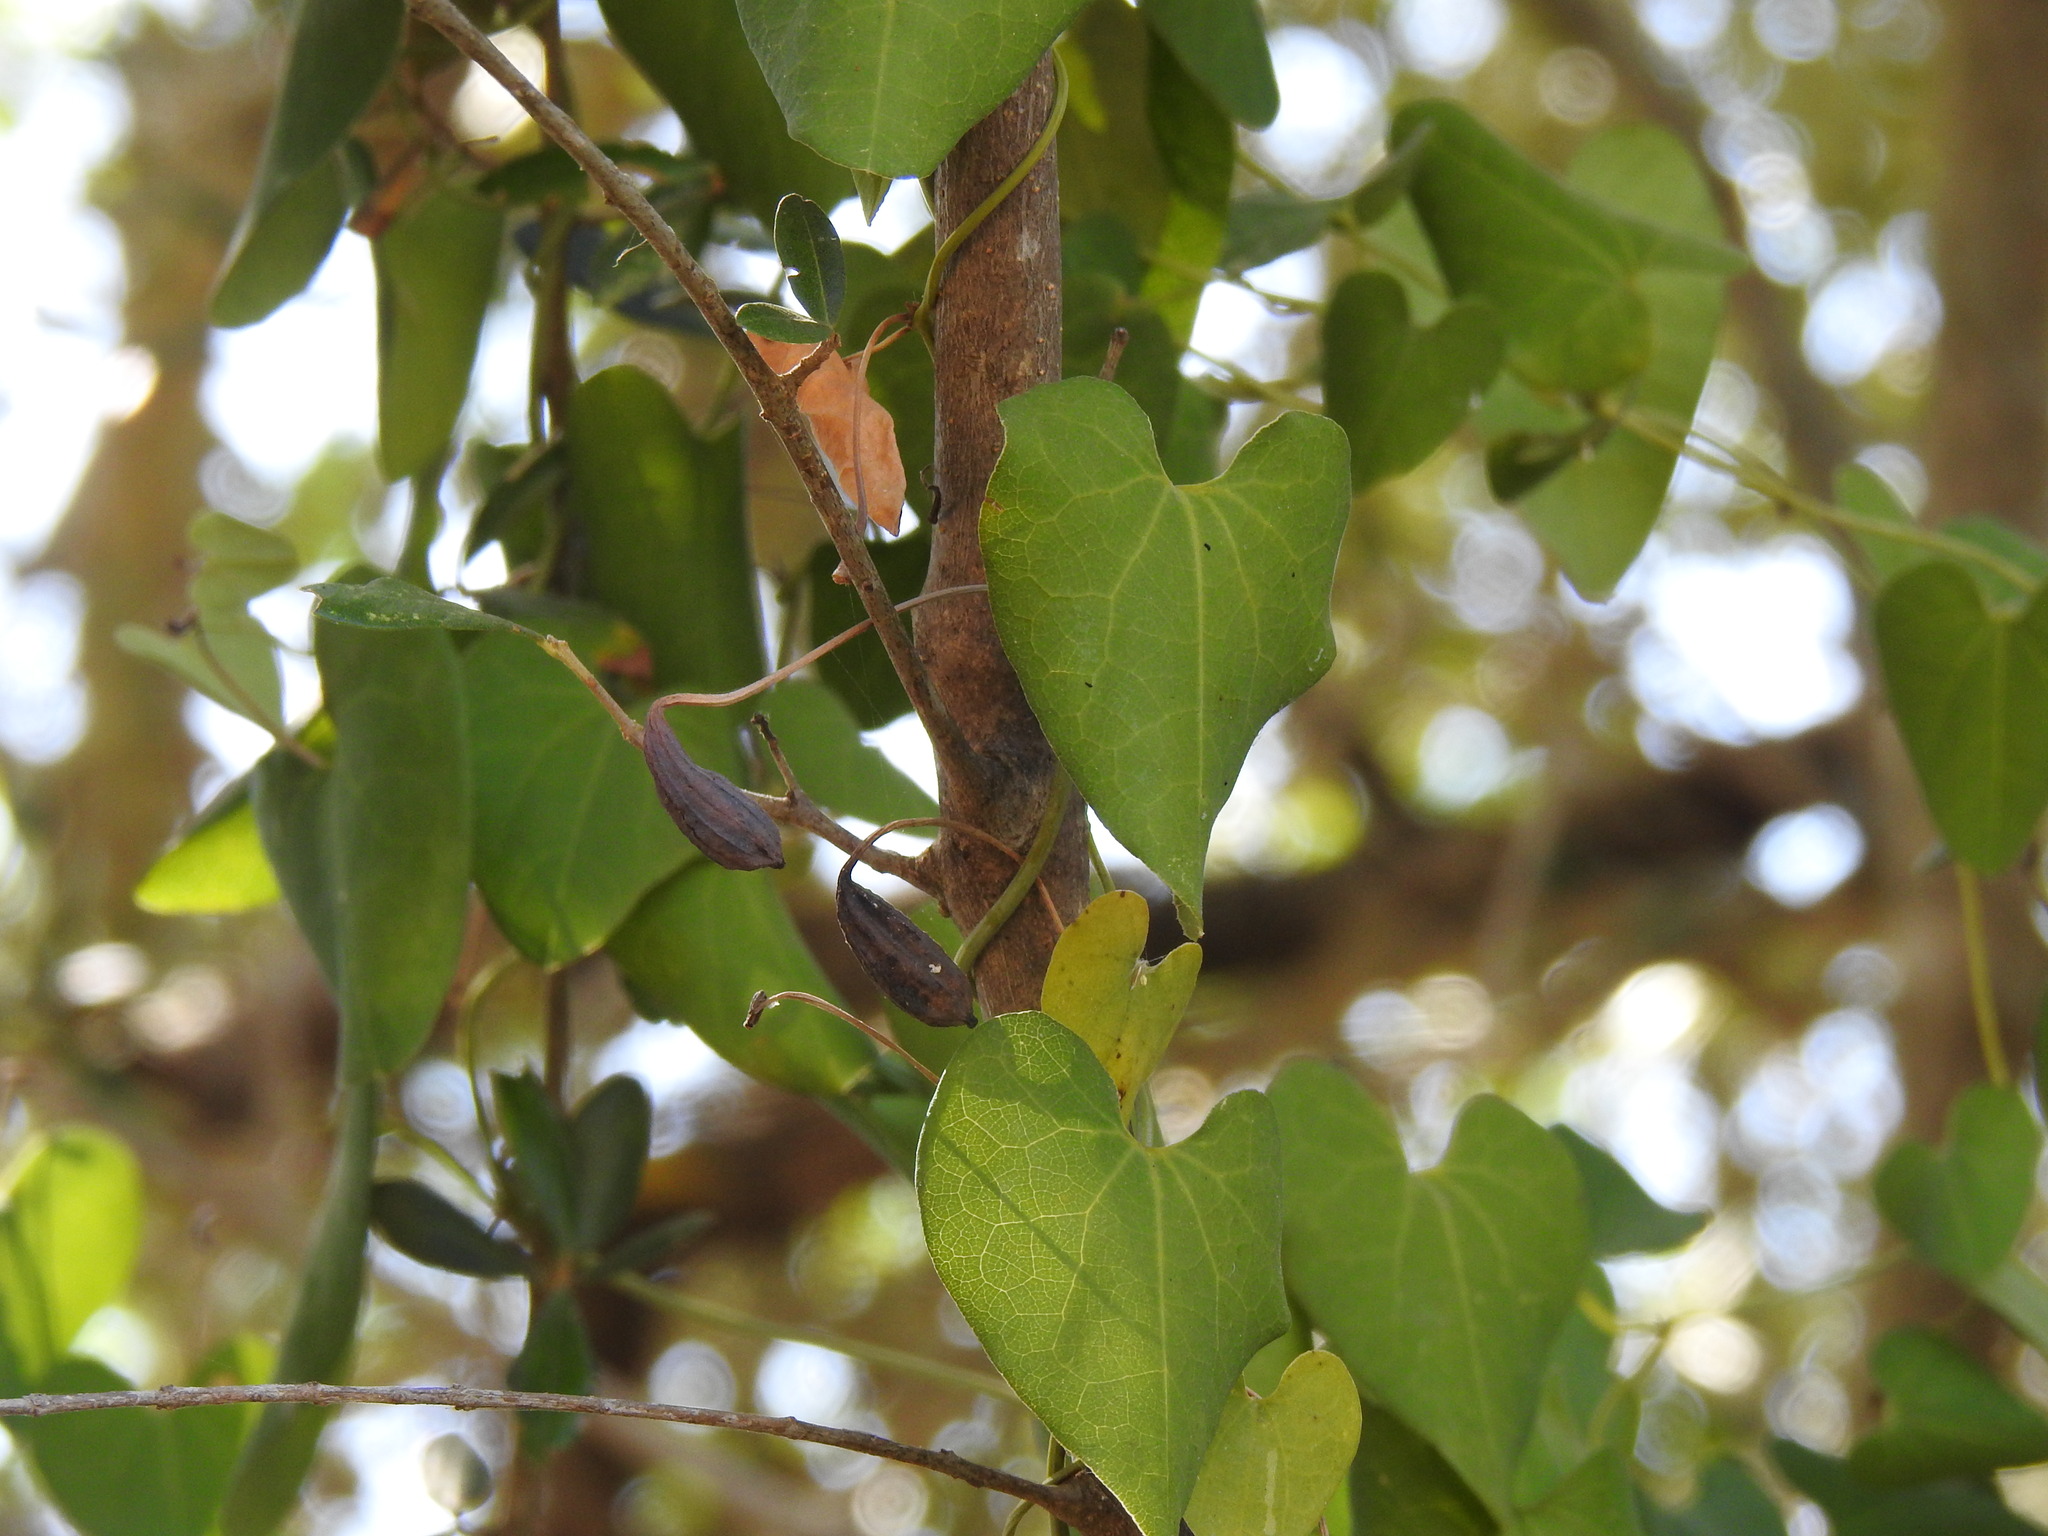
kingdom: Plantae
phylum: Tracheophyta
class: Magnoliopsida
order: Piperales
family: Aristolochiaceae
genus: Aristolochia
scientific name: Aristolochia baetica
